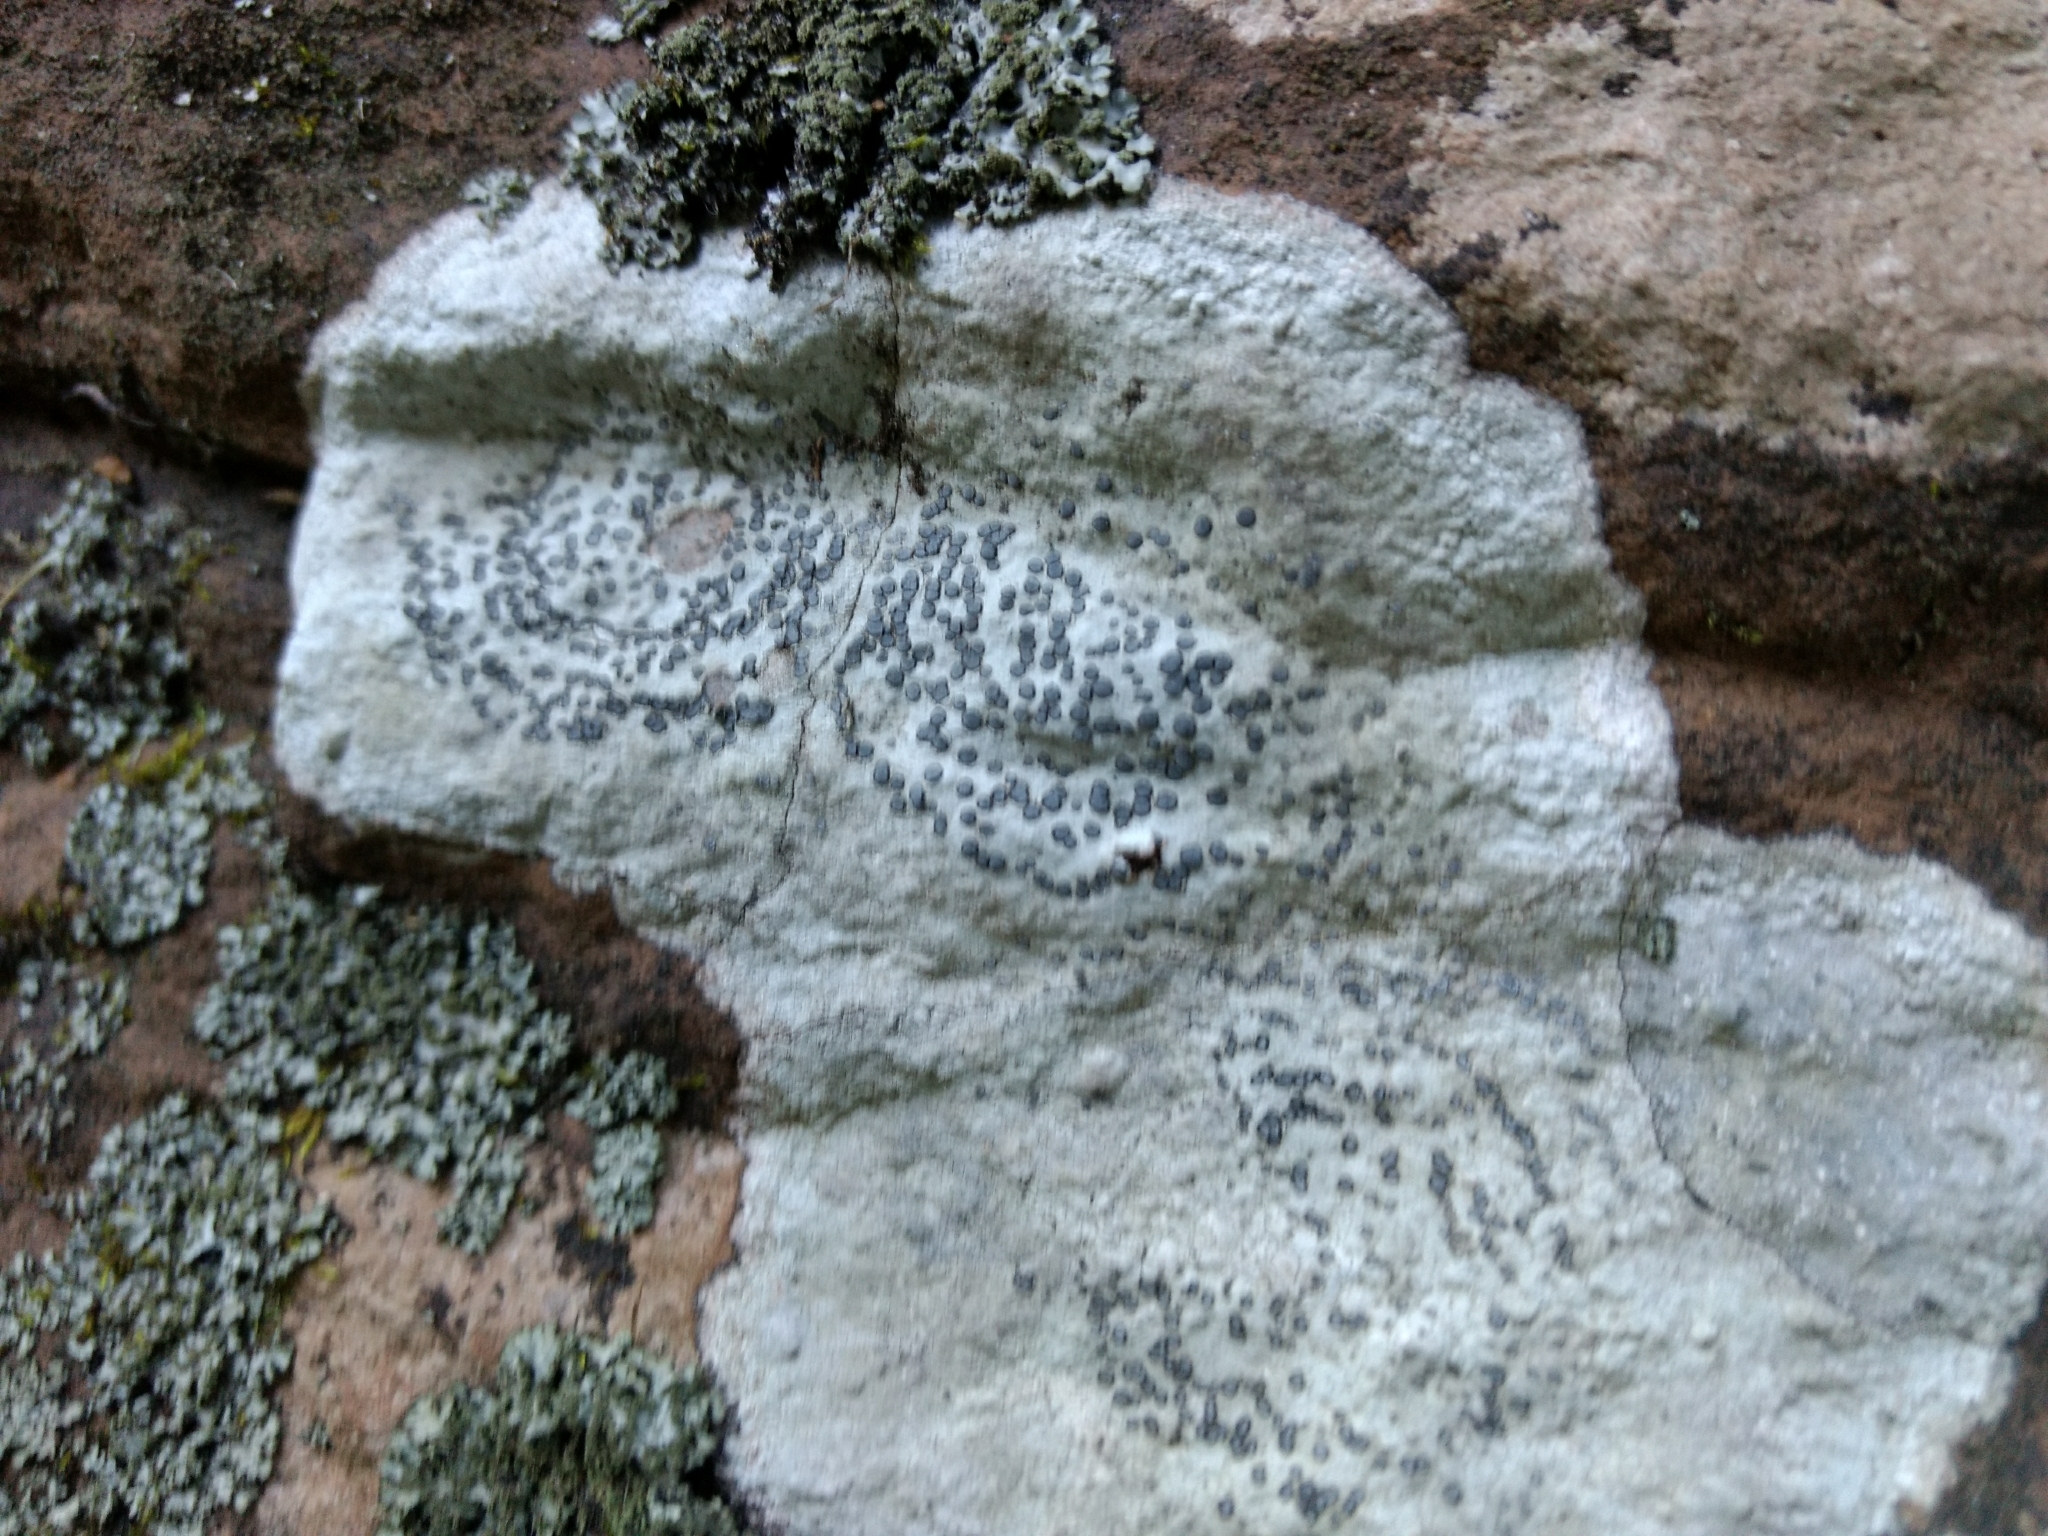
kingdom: Fungi
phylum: Ascomycota
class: Lecanoromycetes
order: Lecideales
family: Lecideaceae
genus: Porpidia
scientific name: Porpidia albocaerulescens
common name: Smokey-eyed boulder lichen
